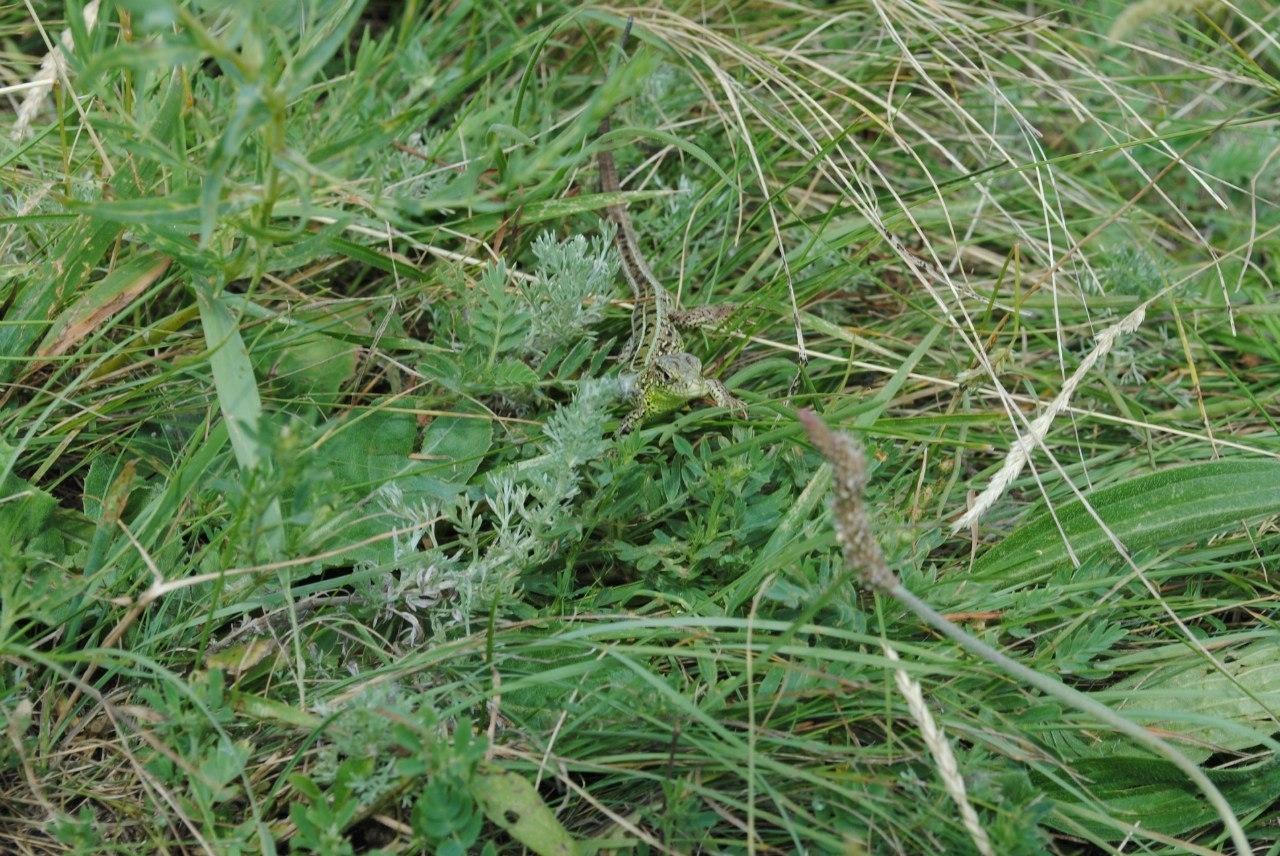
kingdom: Animalia
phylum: Chordata
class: Squamata
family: Lacertidae
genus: Lacerta
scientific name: Lacerta agilis
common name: Sand lizard
